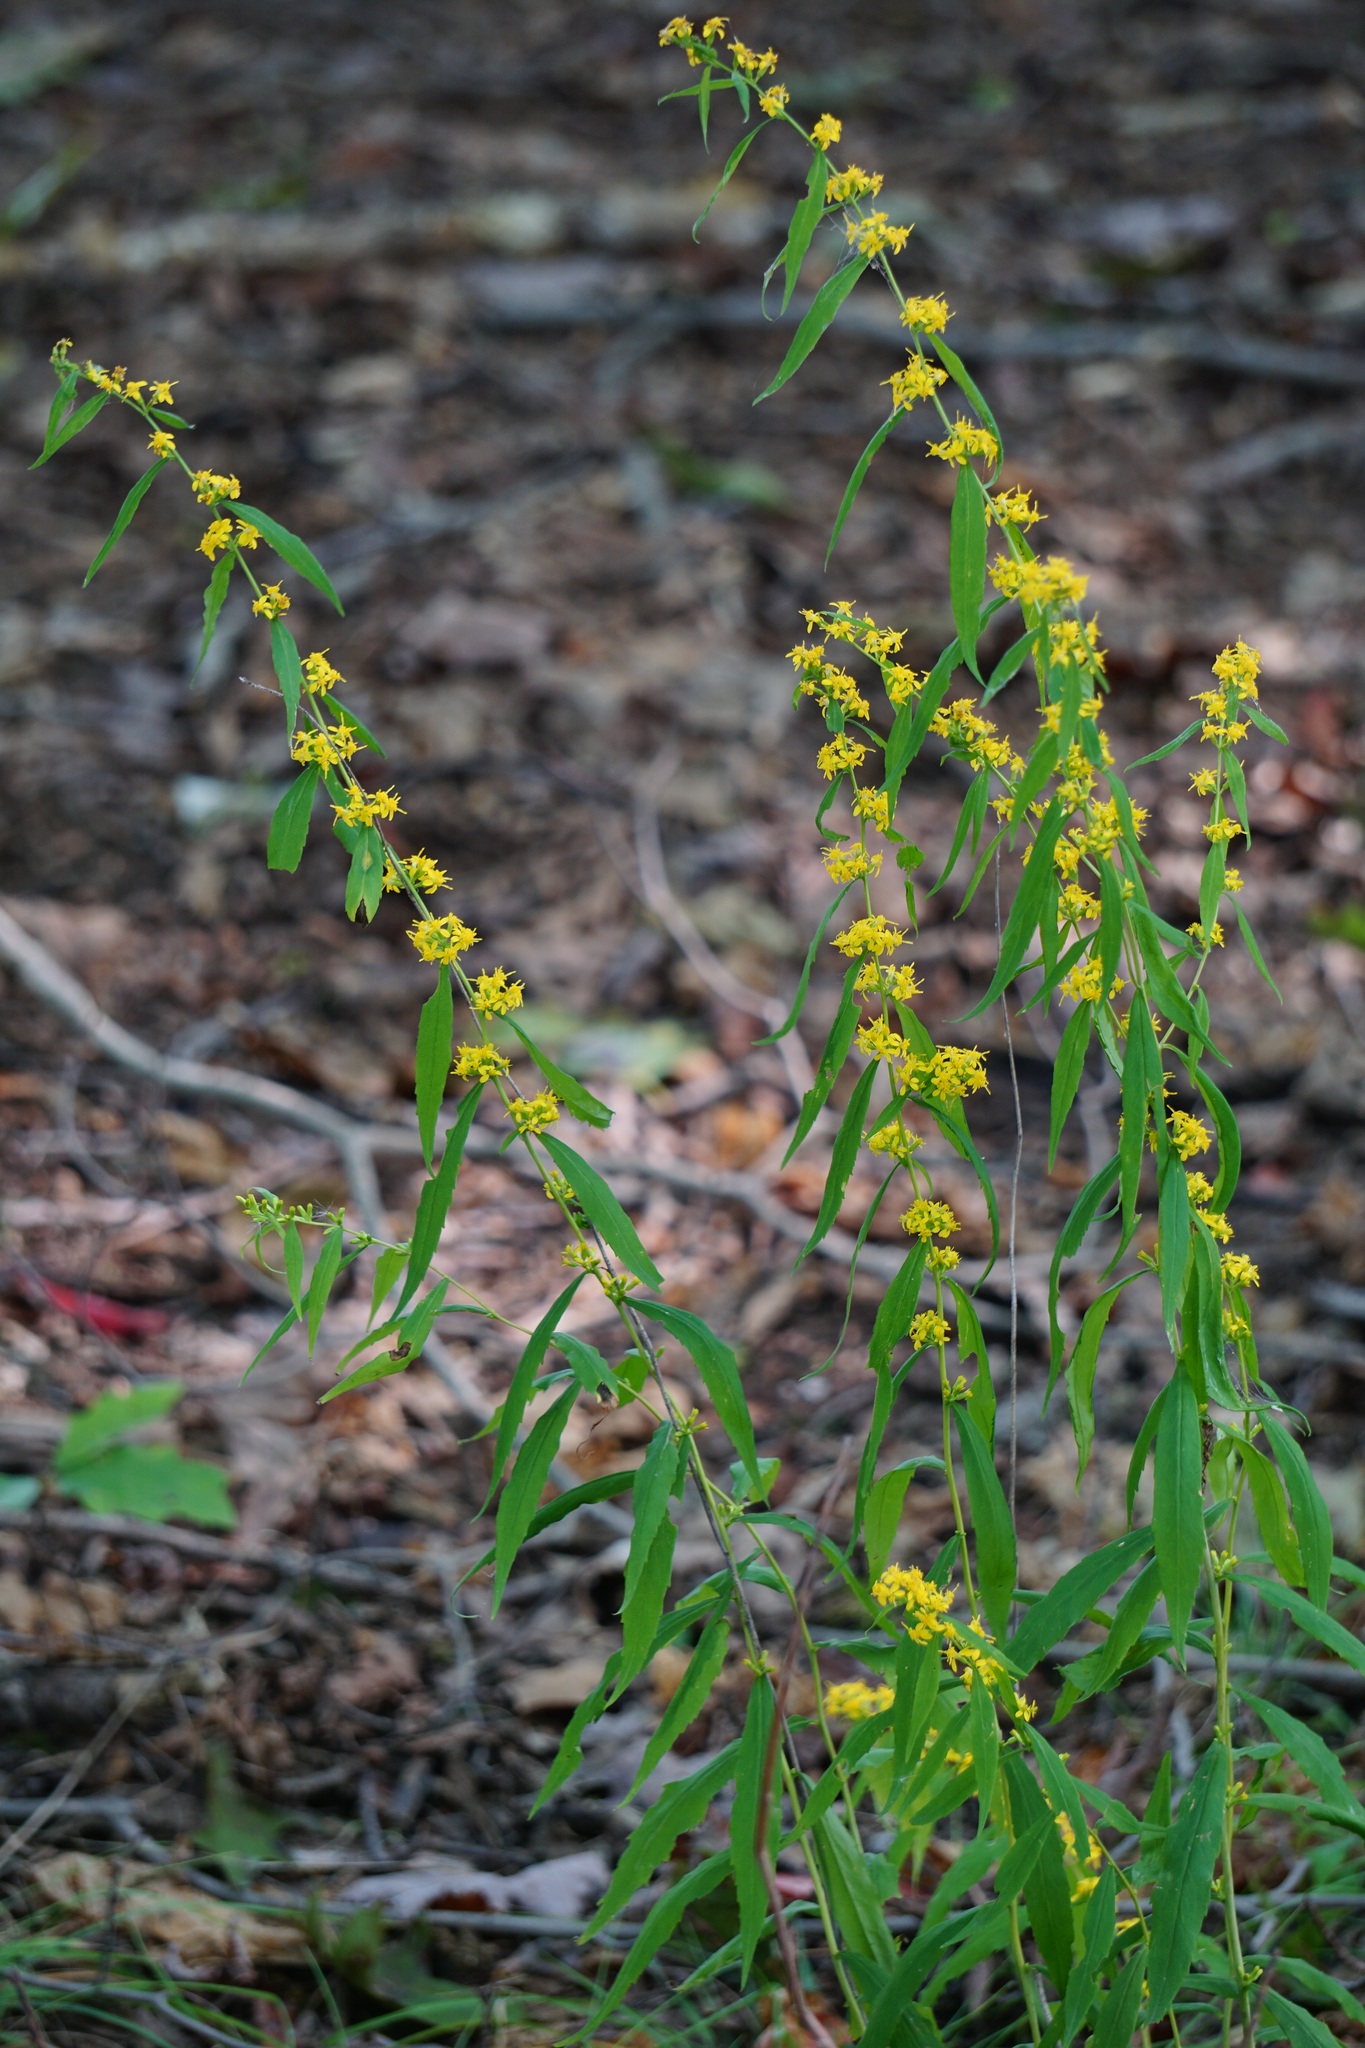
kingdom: Plantae
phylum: Tracheophyta
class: Magnoliopsida
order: Asterales
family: Asteraceae
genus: Solidago
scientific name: Solidago caesia
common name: Woodland goldenrod
